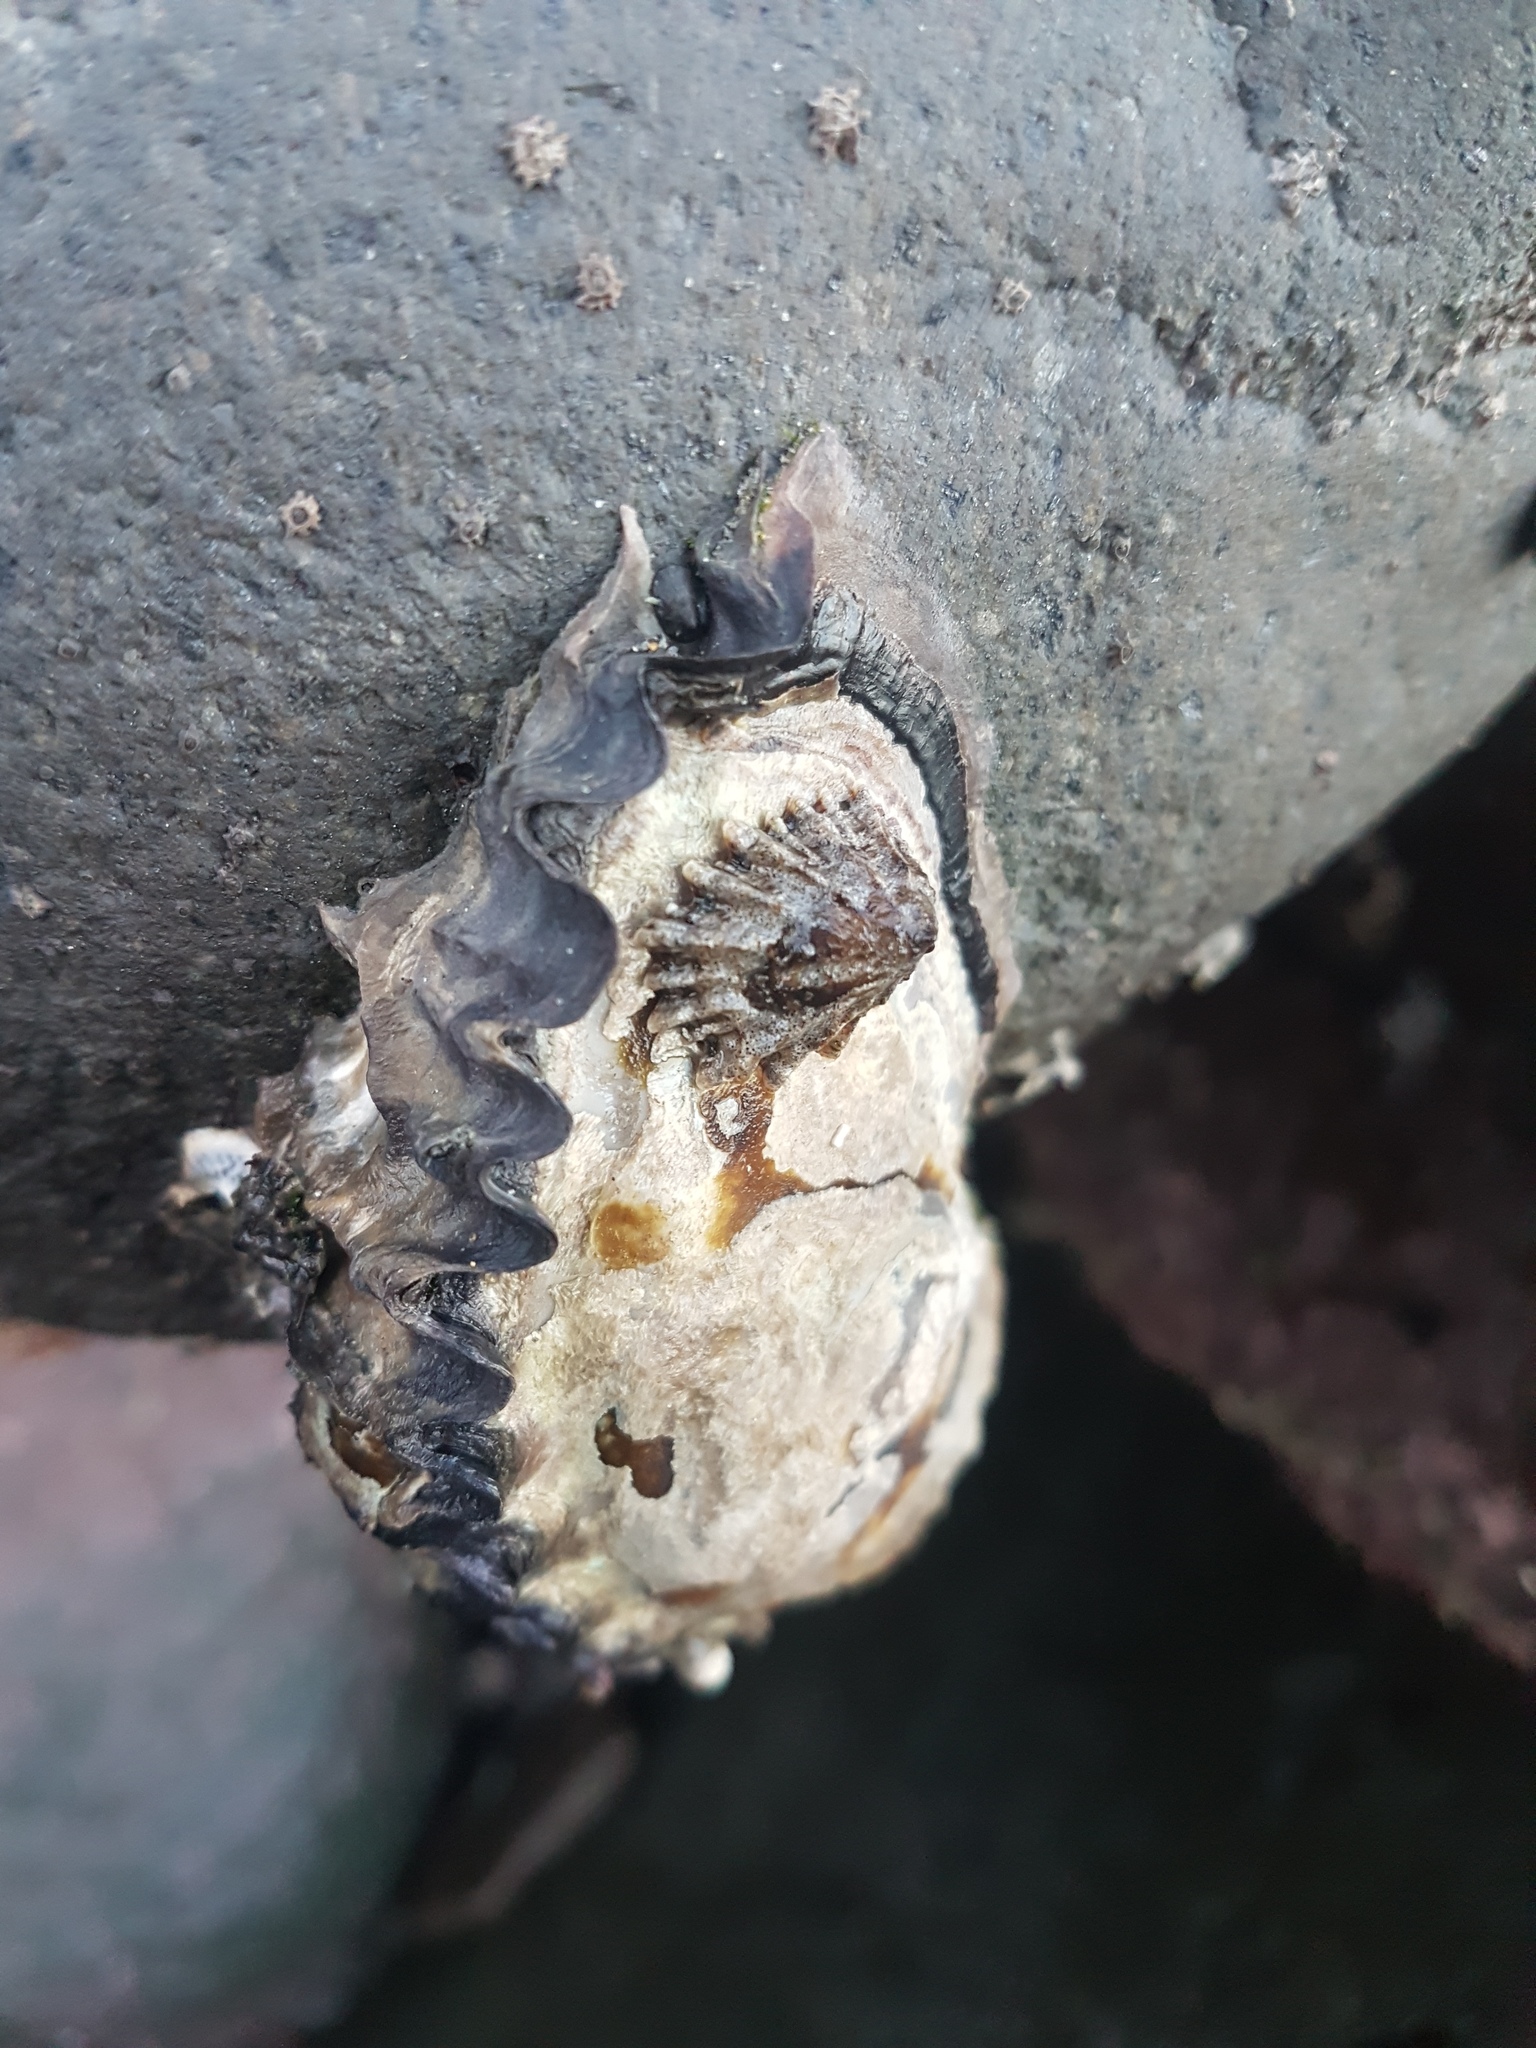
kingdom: Animalia
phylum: Mollusca
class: Gastropoda
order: Siphonariida
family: Siphonariidae
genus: Siphonaria
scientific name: Siphonaria australis
